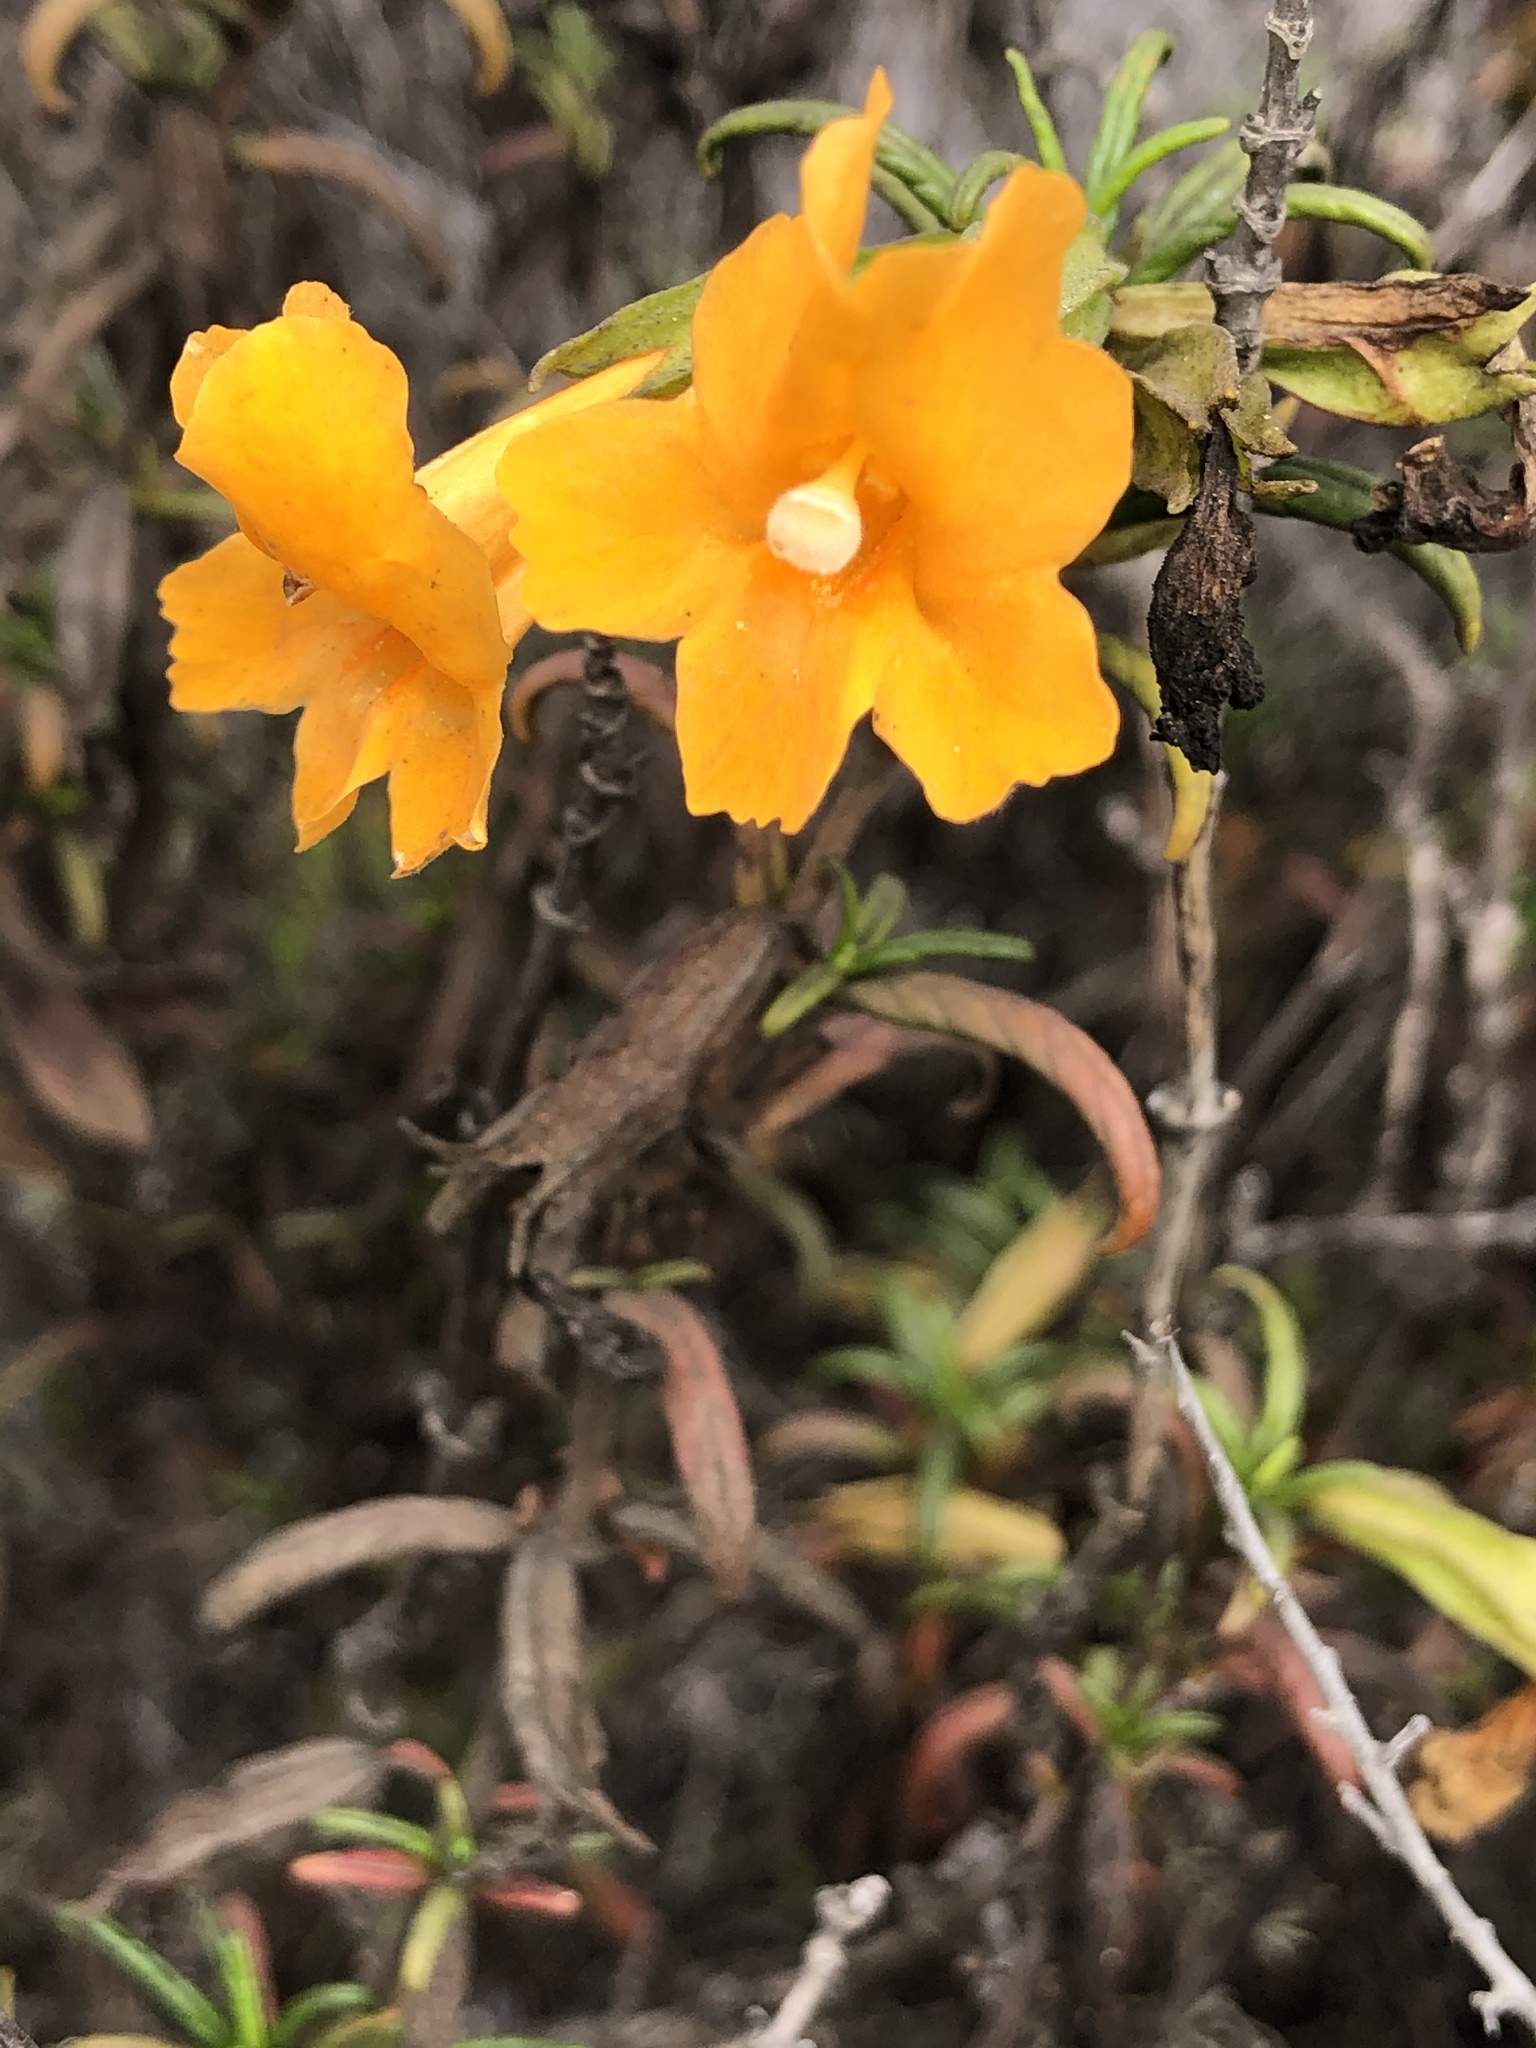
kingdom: Plantae
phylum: Tracheophyta
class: Magnoliopsida
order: Lamiales
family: Phrymaceae
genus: Diplacus
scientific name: Diplacus aurantiacus
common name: Bush monkey-flower
